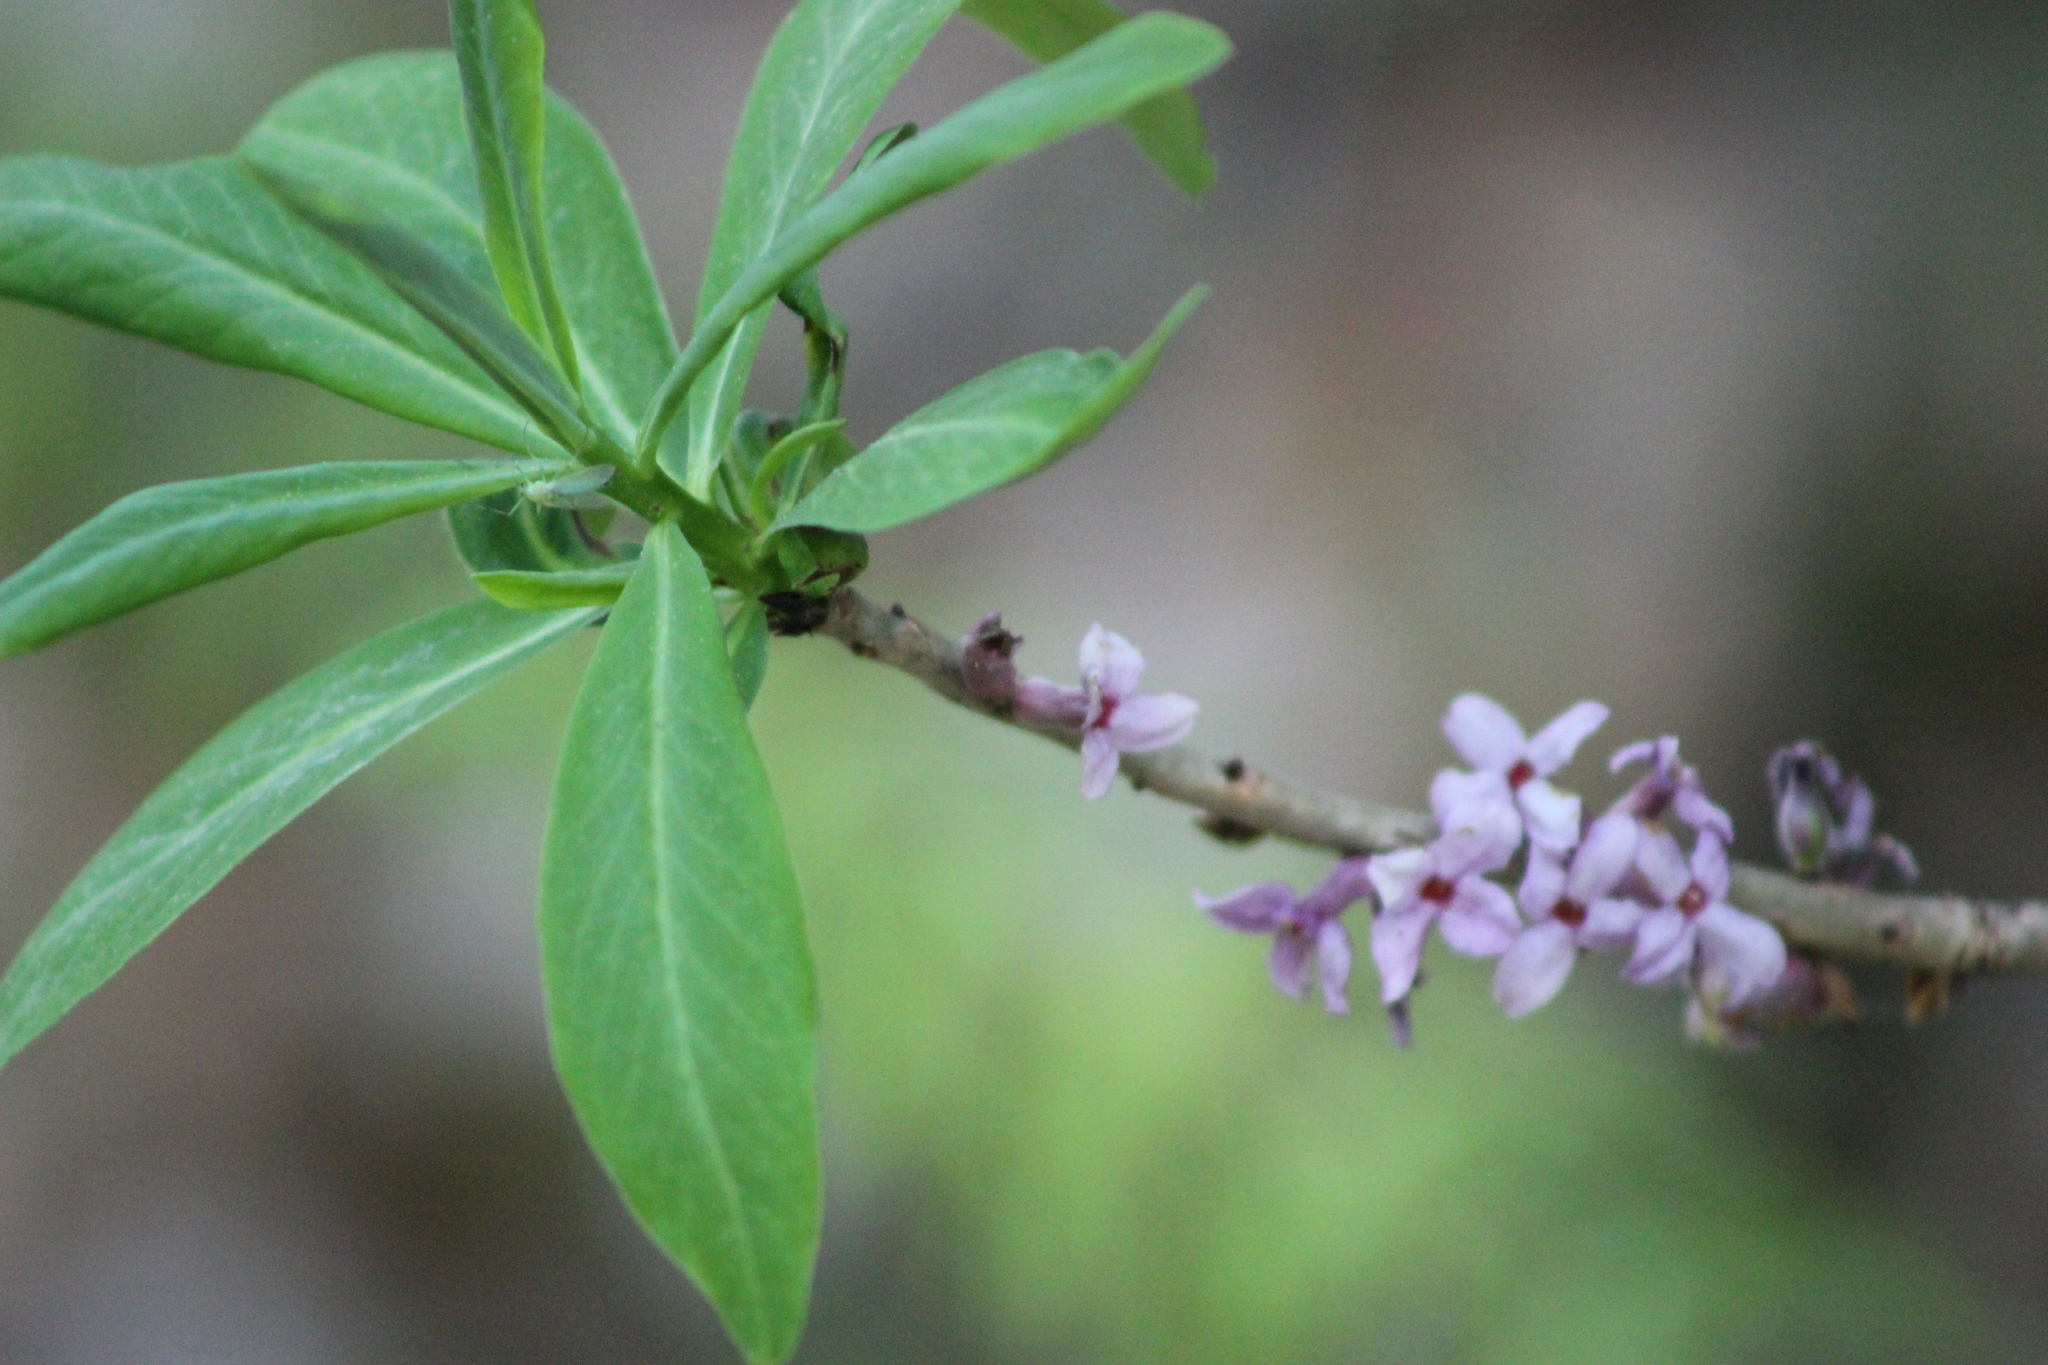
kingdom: Plantae
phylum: Tracheophyta
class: Magnoliopsida
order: Malvales
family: Thymelaeaceae
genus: Daphne
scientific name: Daphne mezereum
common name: Mezereon
